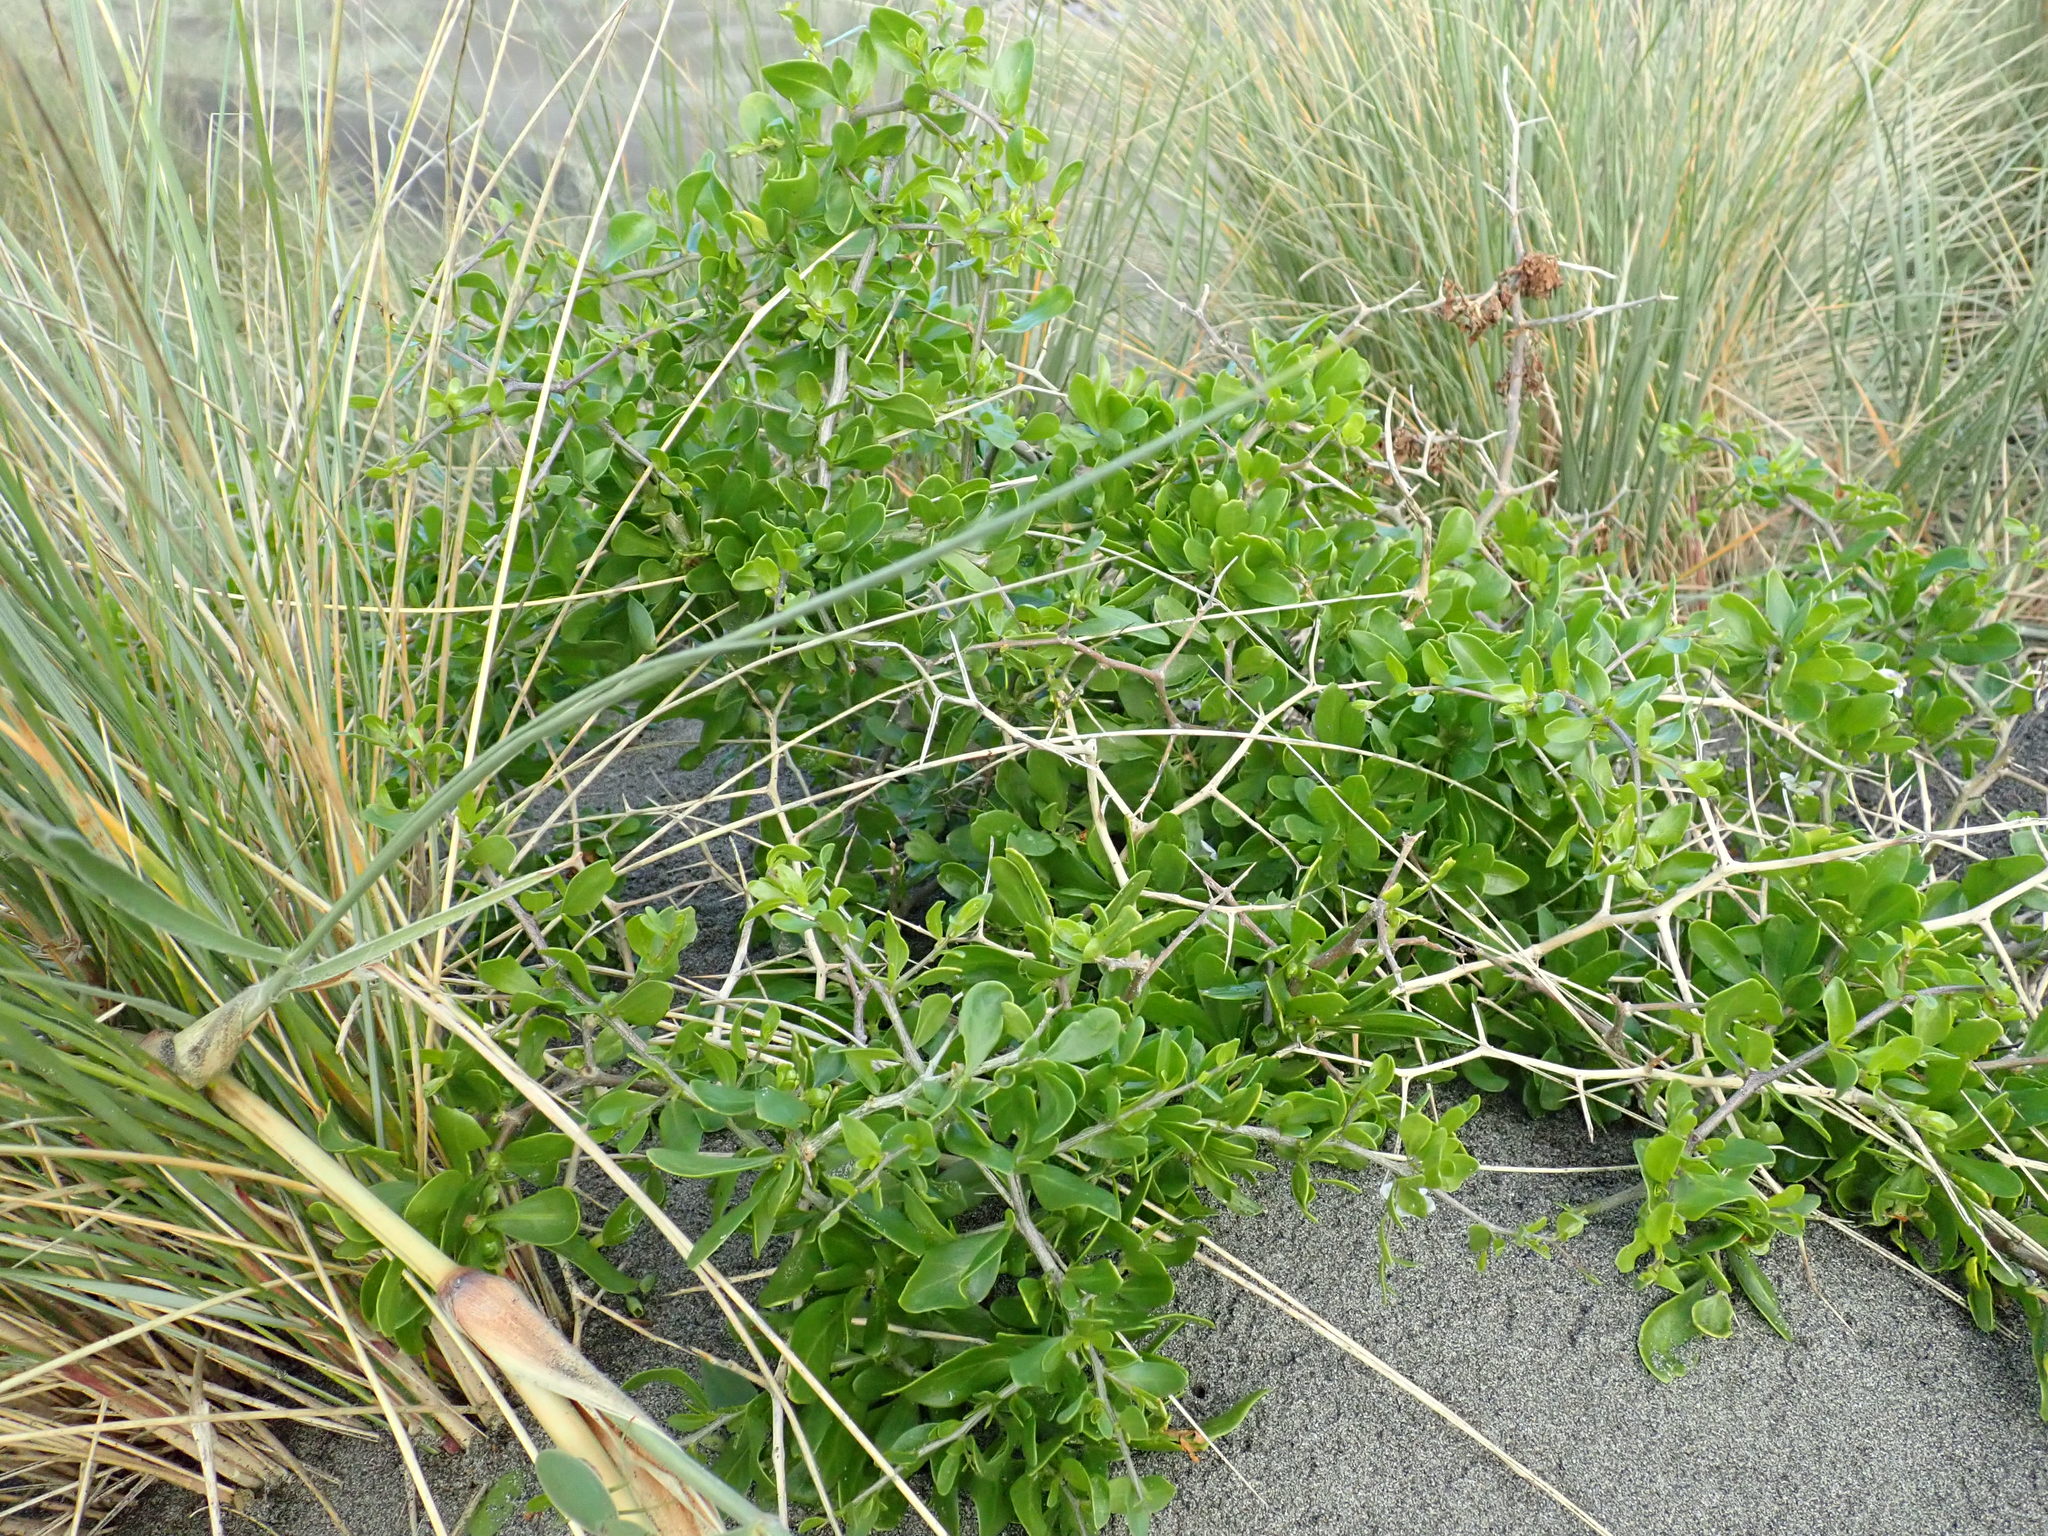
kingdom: Plantae
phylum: Tracheophyta
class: Magnoliopsida
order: Solanales
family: Solanaceae
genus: Lycium
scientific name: Lycium ferocissimum
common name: African boxthorn
